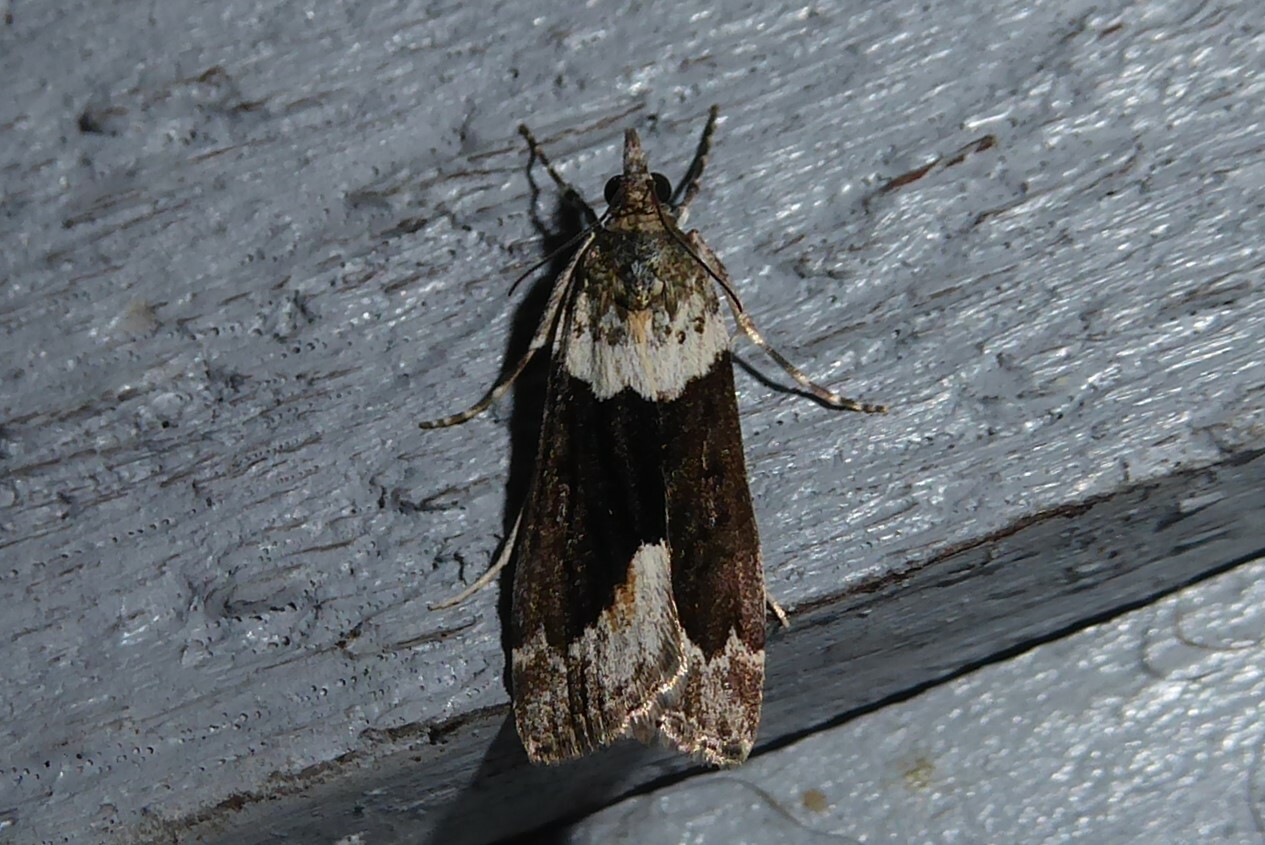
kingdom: Animalia
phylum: Arthropoda
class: Insecta
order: Lepidoptera
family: Crambidae
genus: Eudonia
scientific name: Eudonia submarginalis
